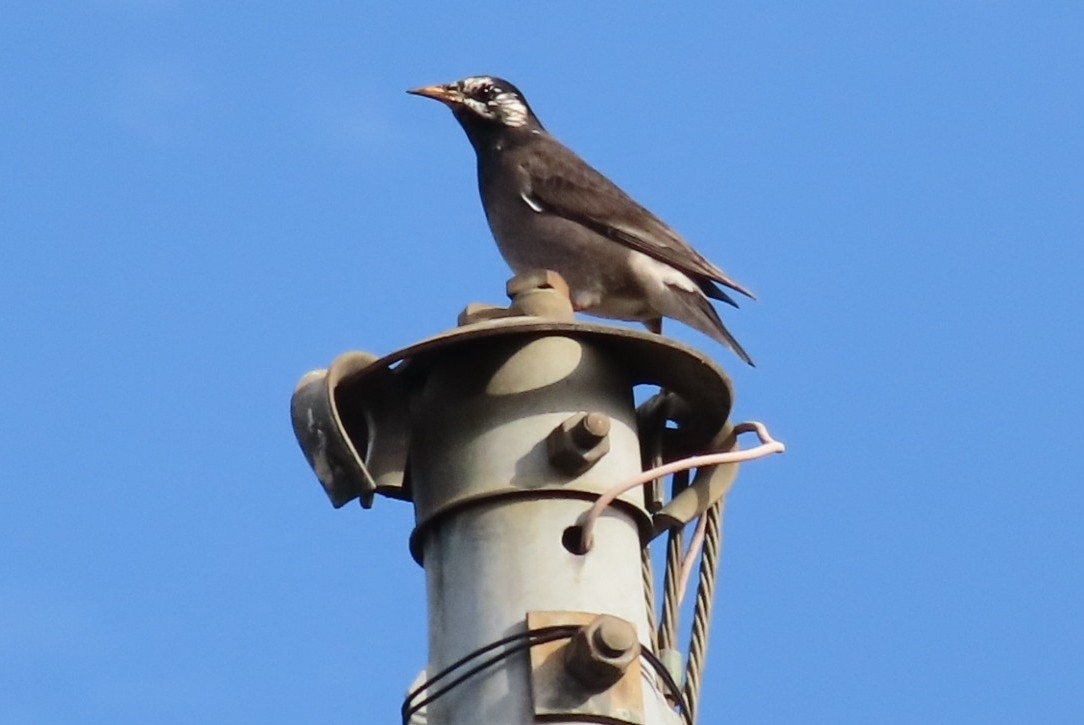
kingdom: Animalia
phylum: Chordata
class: Aves
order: Passeriformes
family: Sturnidae
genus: Spodiopsar
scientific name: Spodiopsar cineraceus
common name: White-cheeked starling
